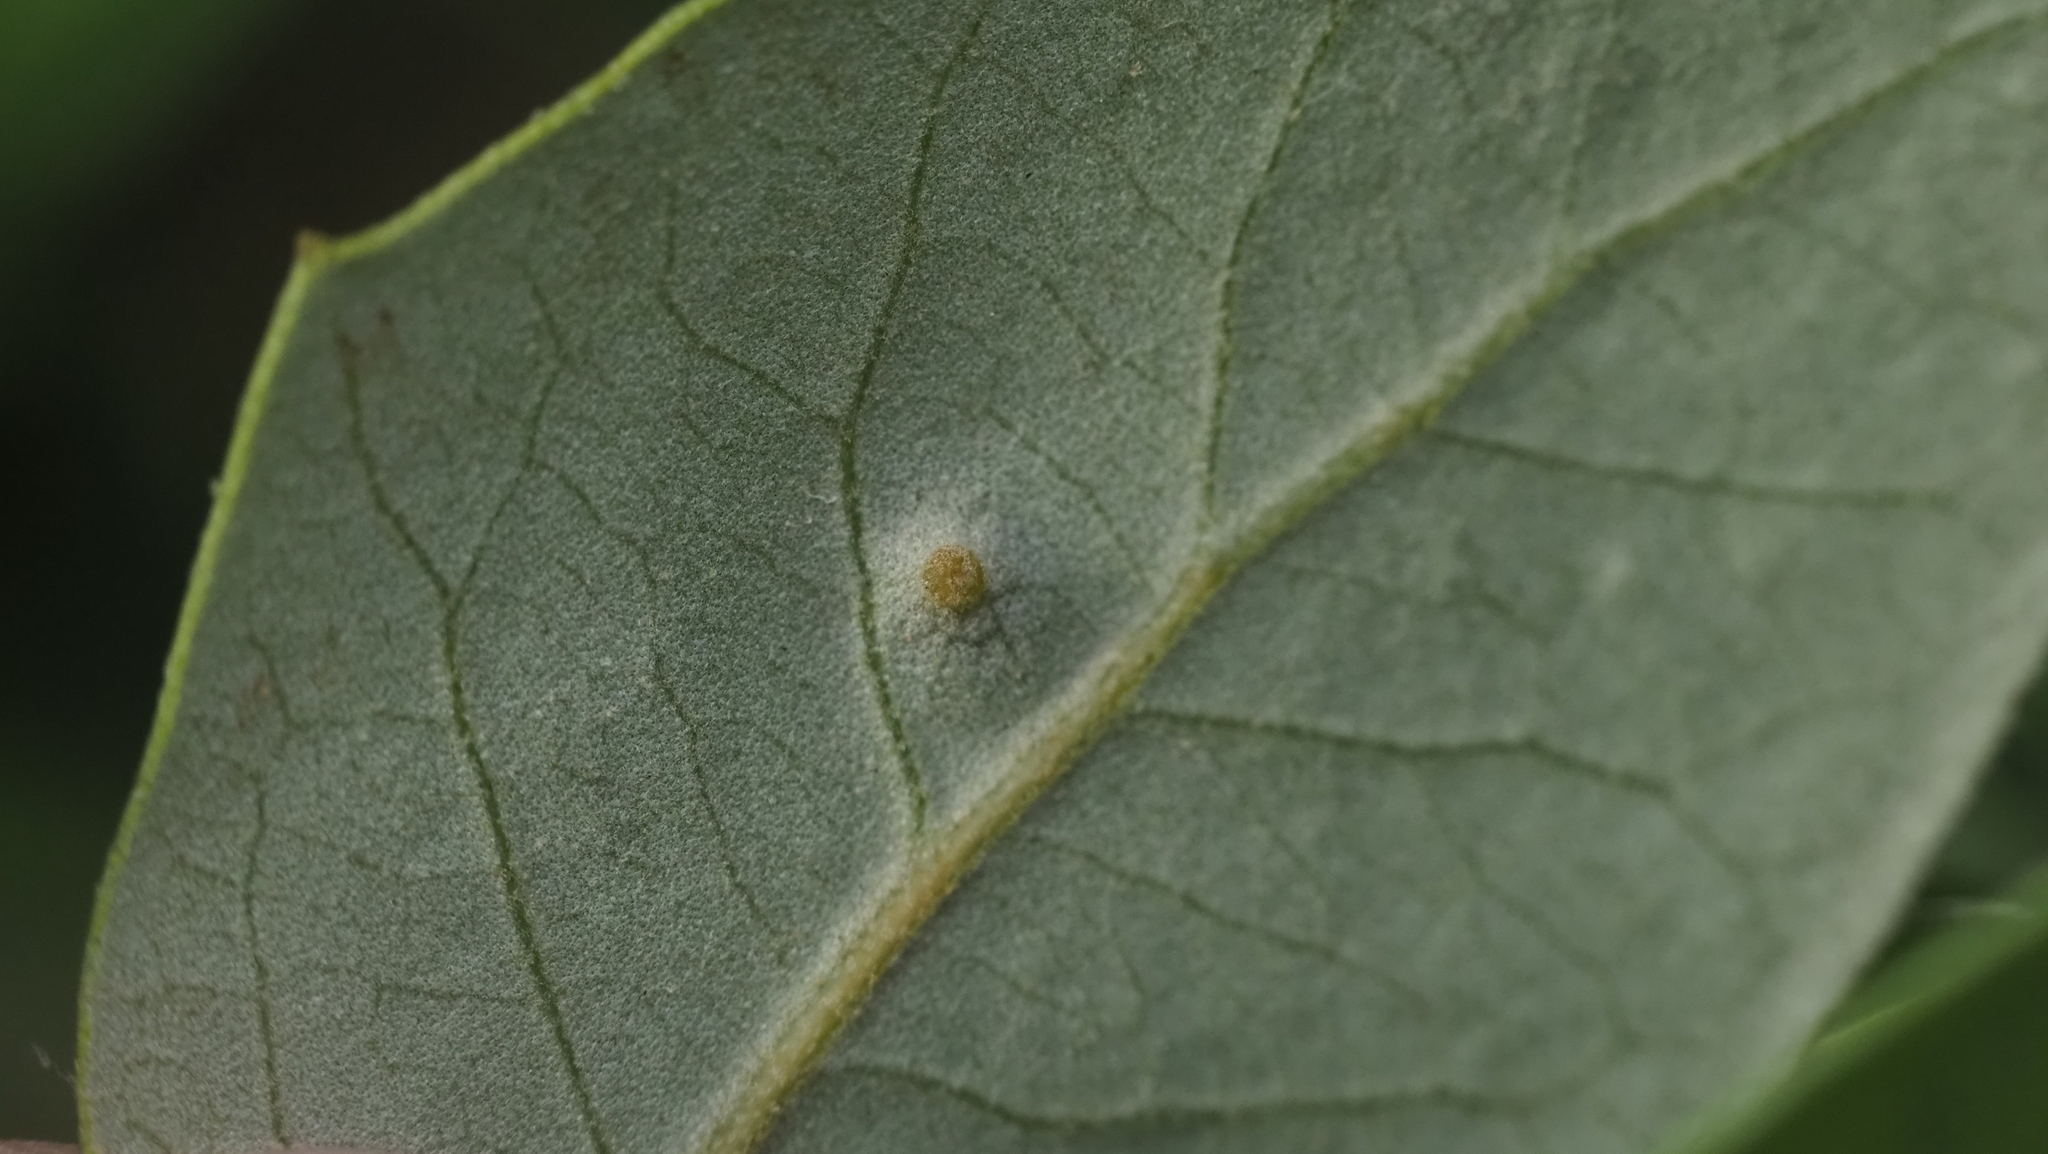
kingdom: Animalia
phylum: Arthropoda
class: Insecta
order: Hymenoptera
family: Cynipidae
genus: Neuroterus
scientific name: Neuroterus
